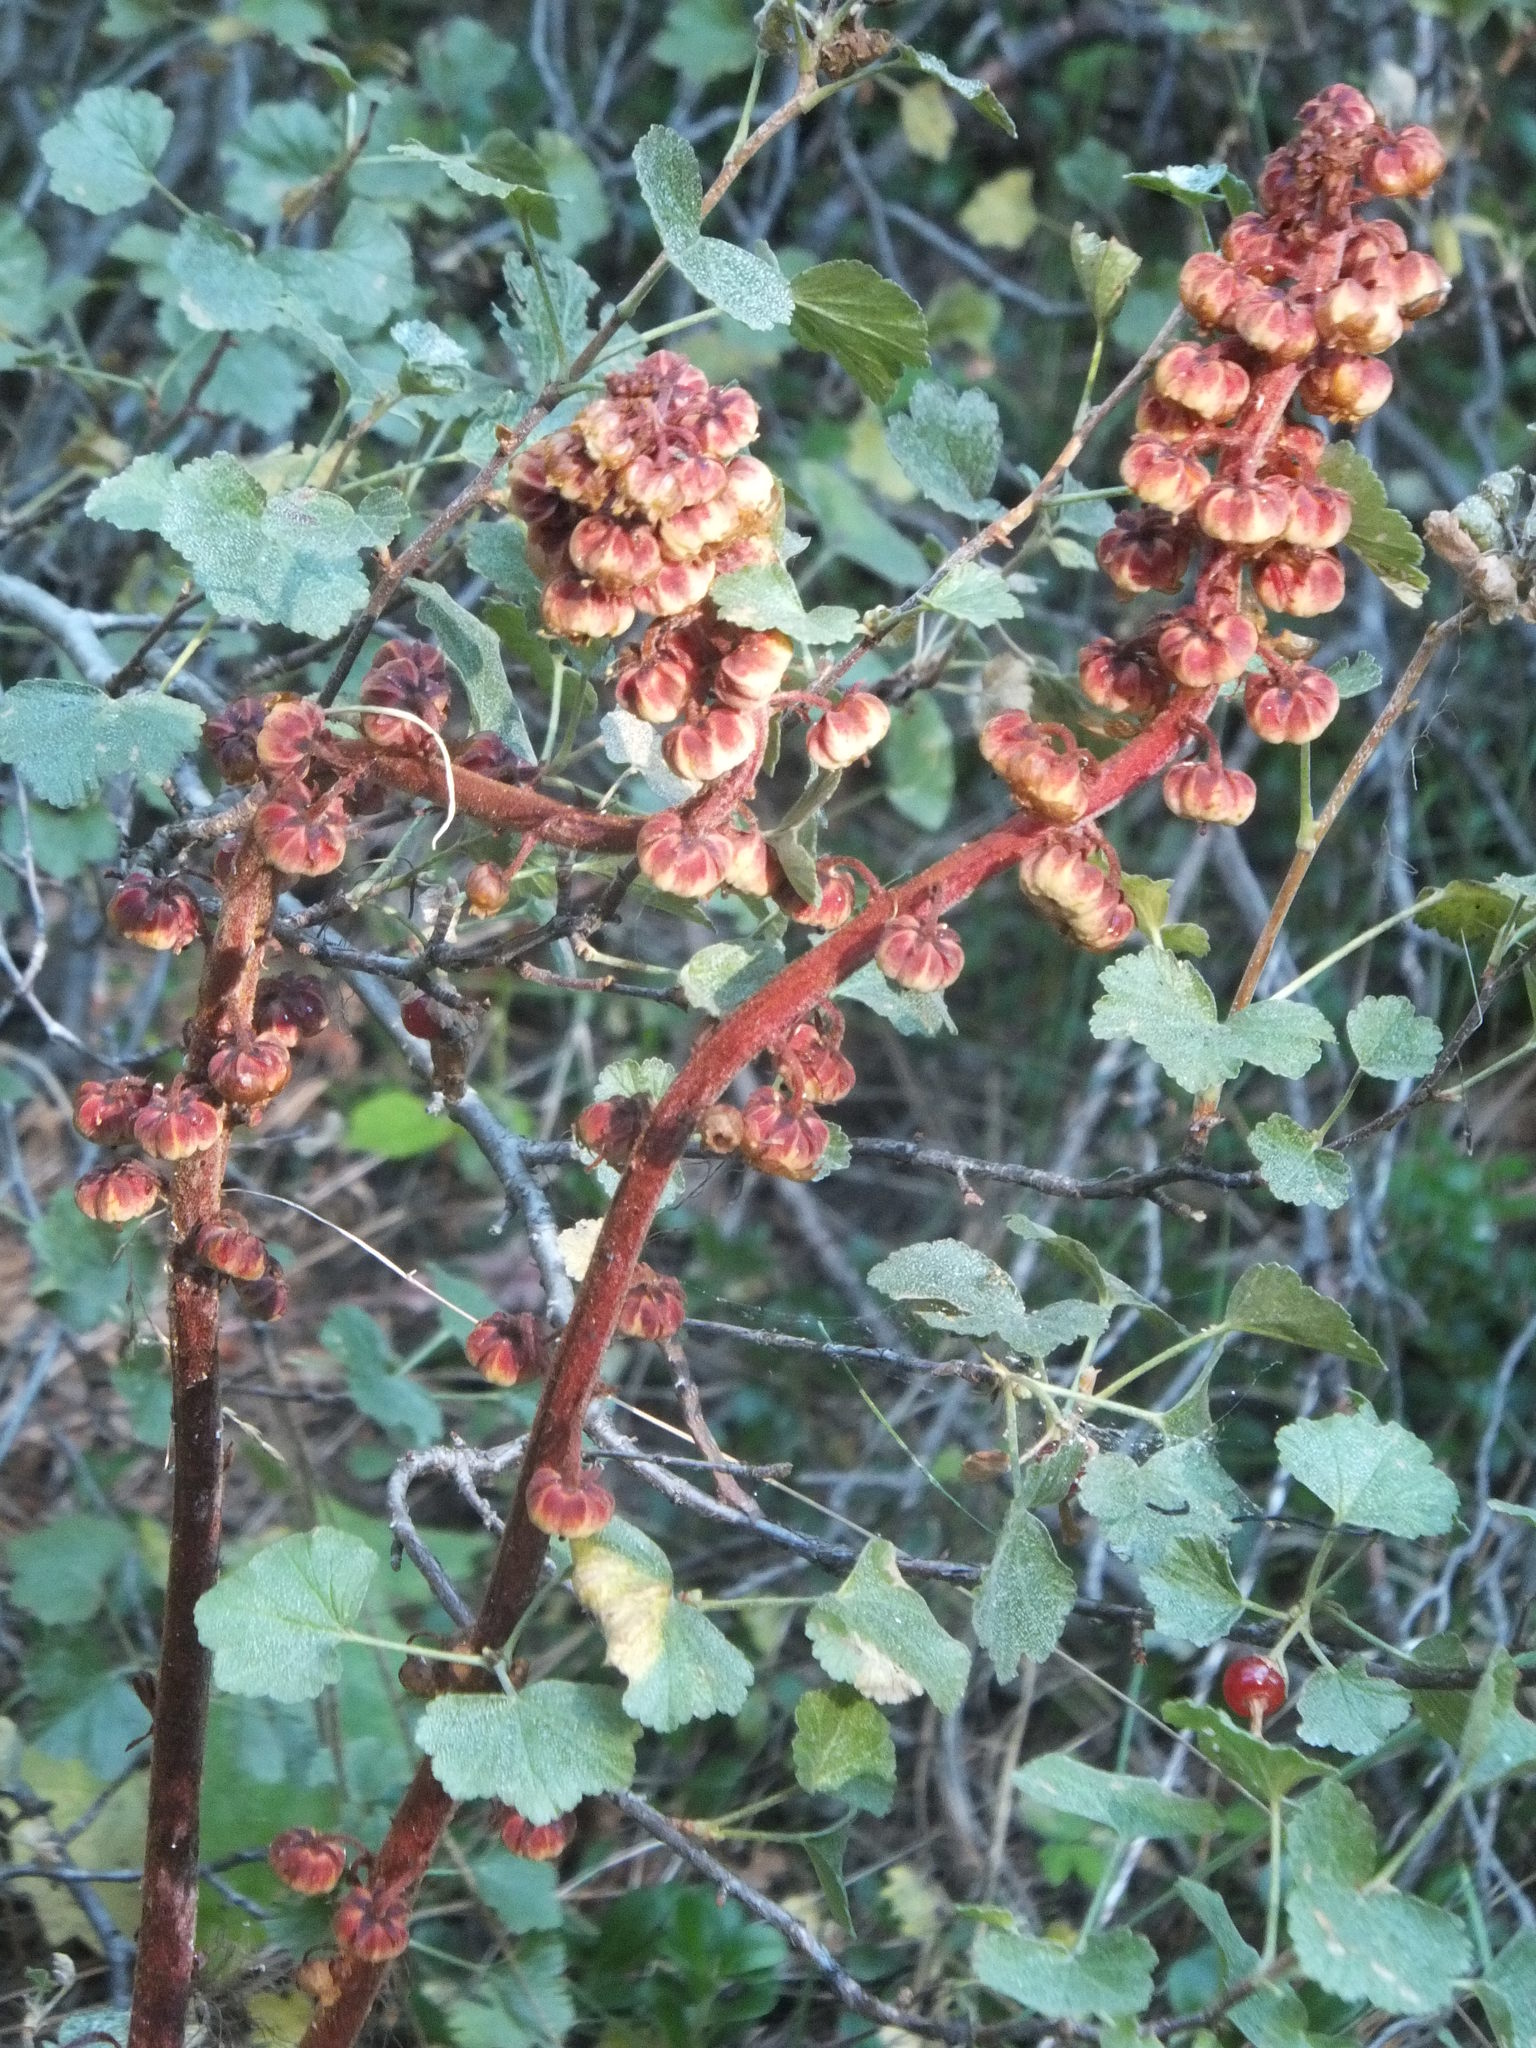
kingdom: Plantae
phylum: Tracheophyta
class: Magnoliopsida
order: Ericales
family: Ericaceae
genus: Pterospora
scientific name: Pterospora andromedea
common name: Giant bird's-nest
